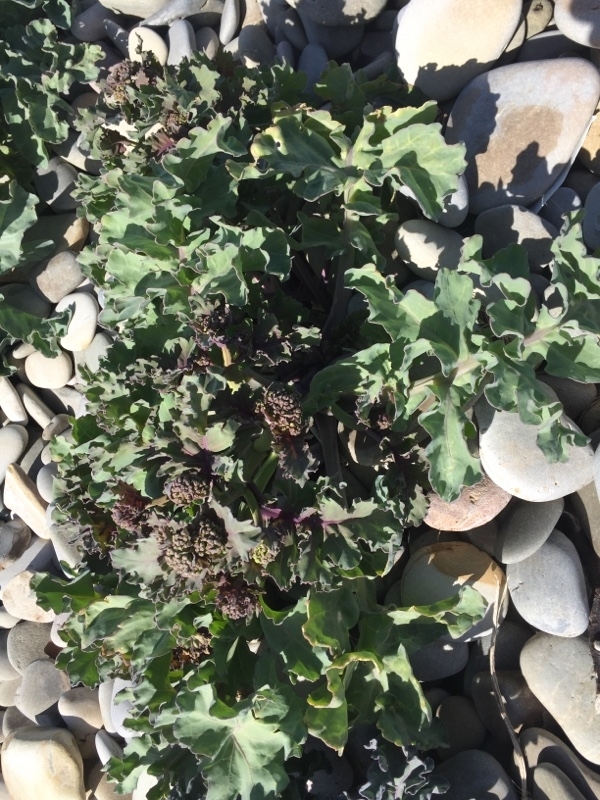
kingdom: Plantae
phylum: Tracheophyta
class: Magnoliopsida
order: Brassicales
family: Brassicaceae
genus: Crambe
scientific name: Crambe maritima
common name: Sea-kale
